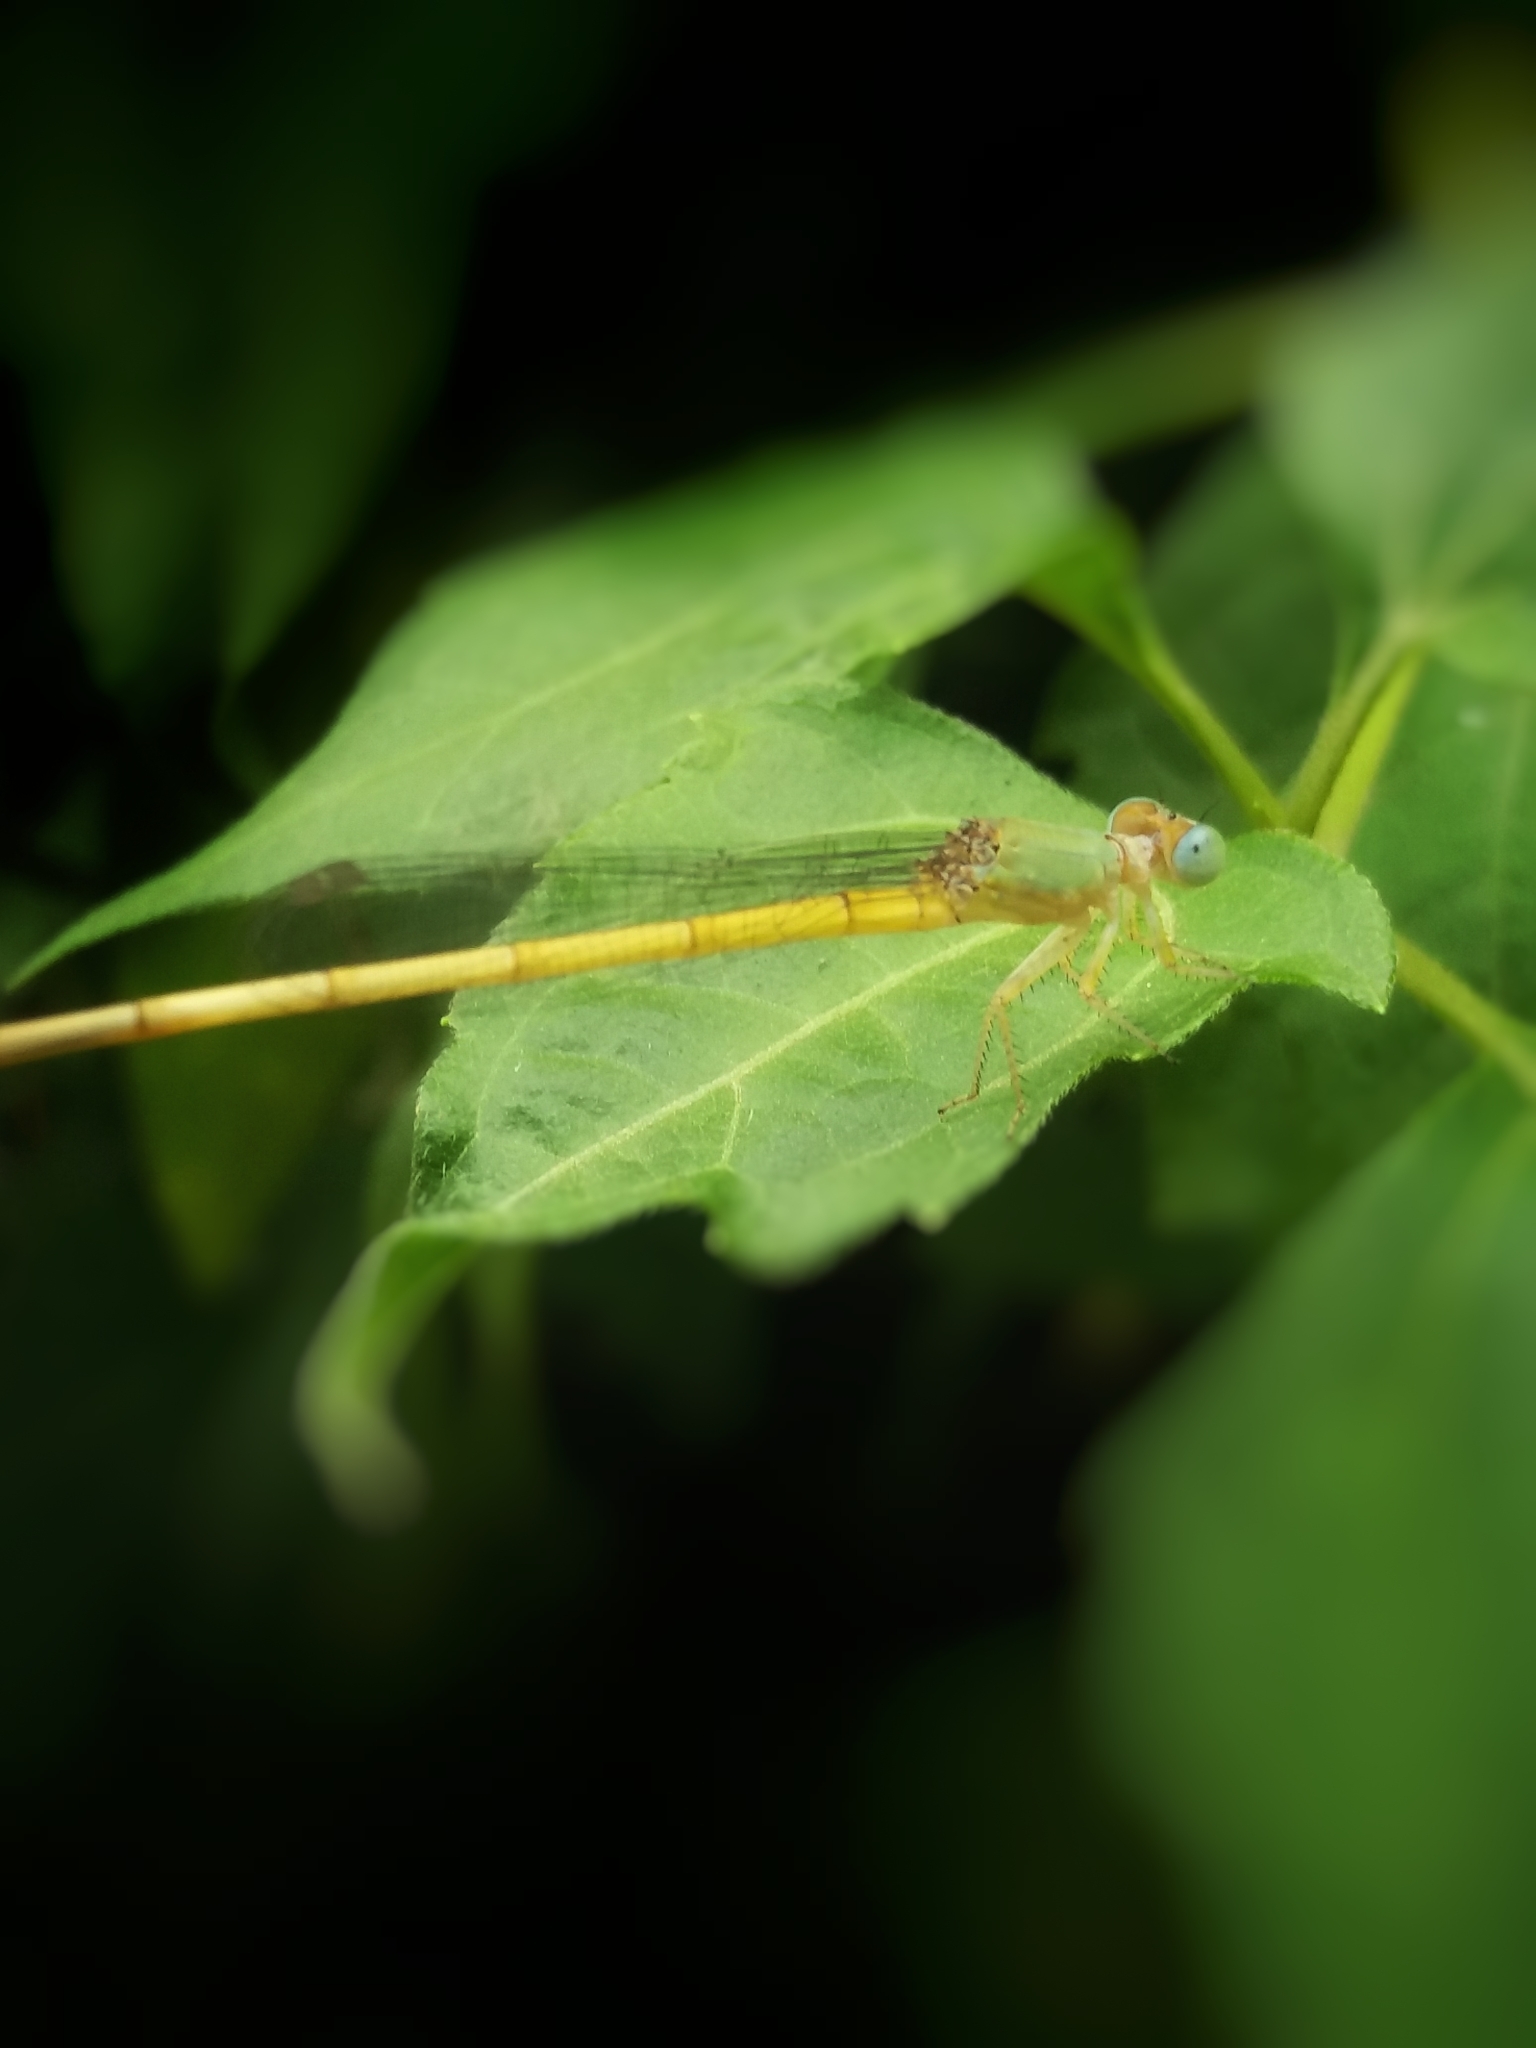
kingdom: Animalia
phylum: Arthropoda
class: Insecta
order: Odonata
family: Coenagrionidae
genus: Ceriagrion
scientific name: Ceriagrion coromandelianum
